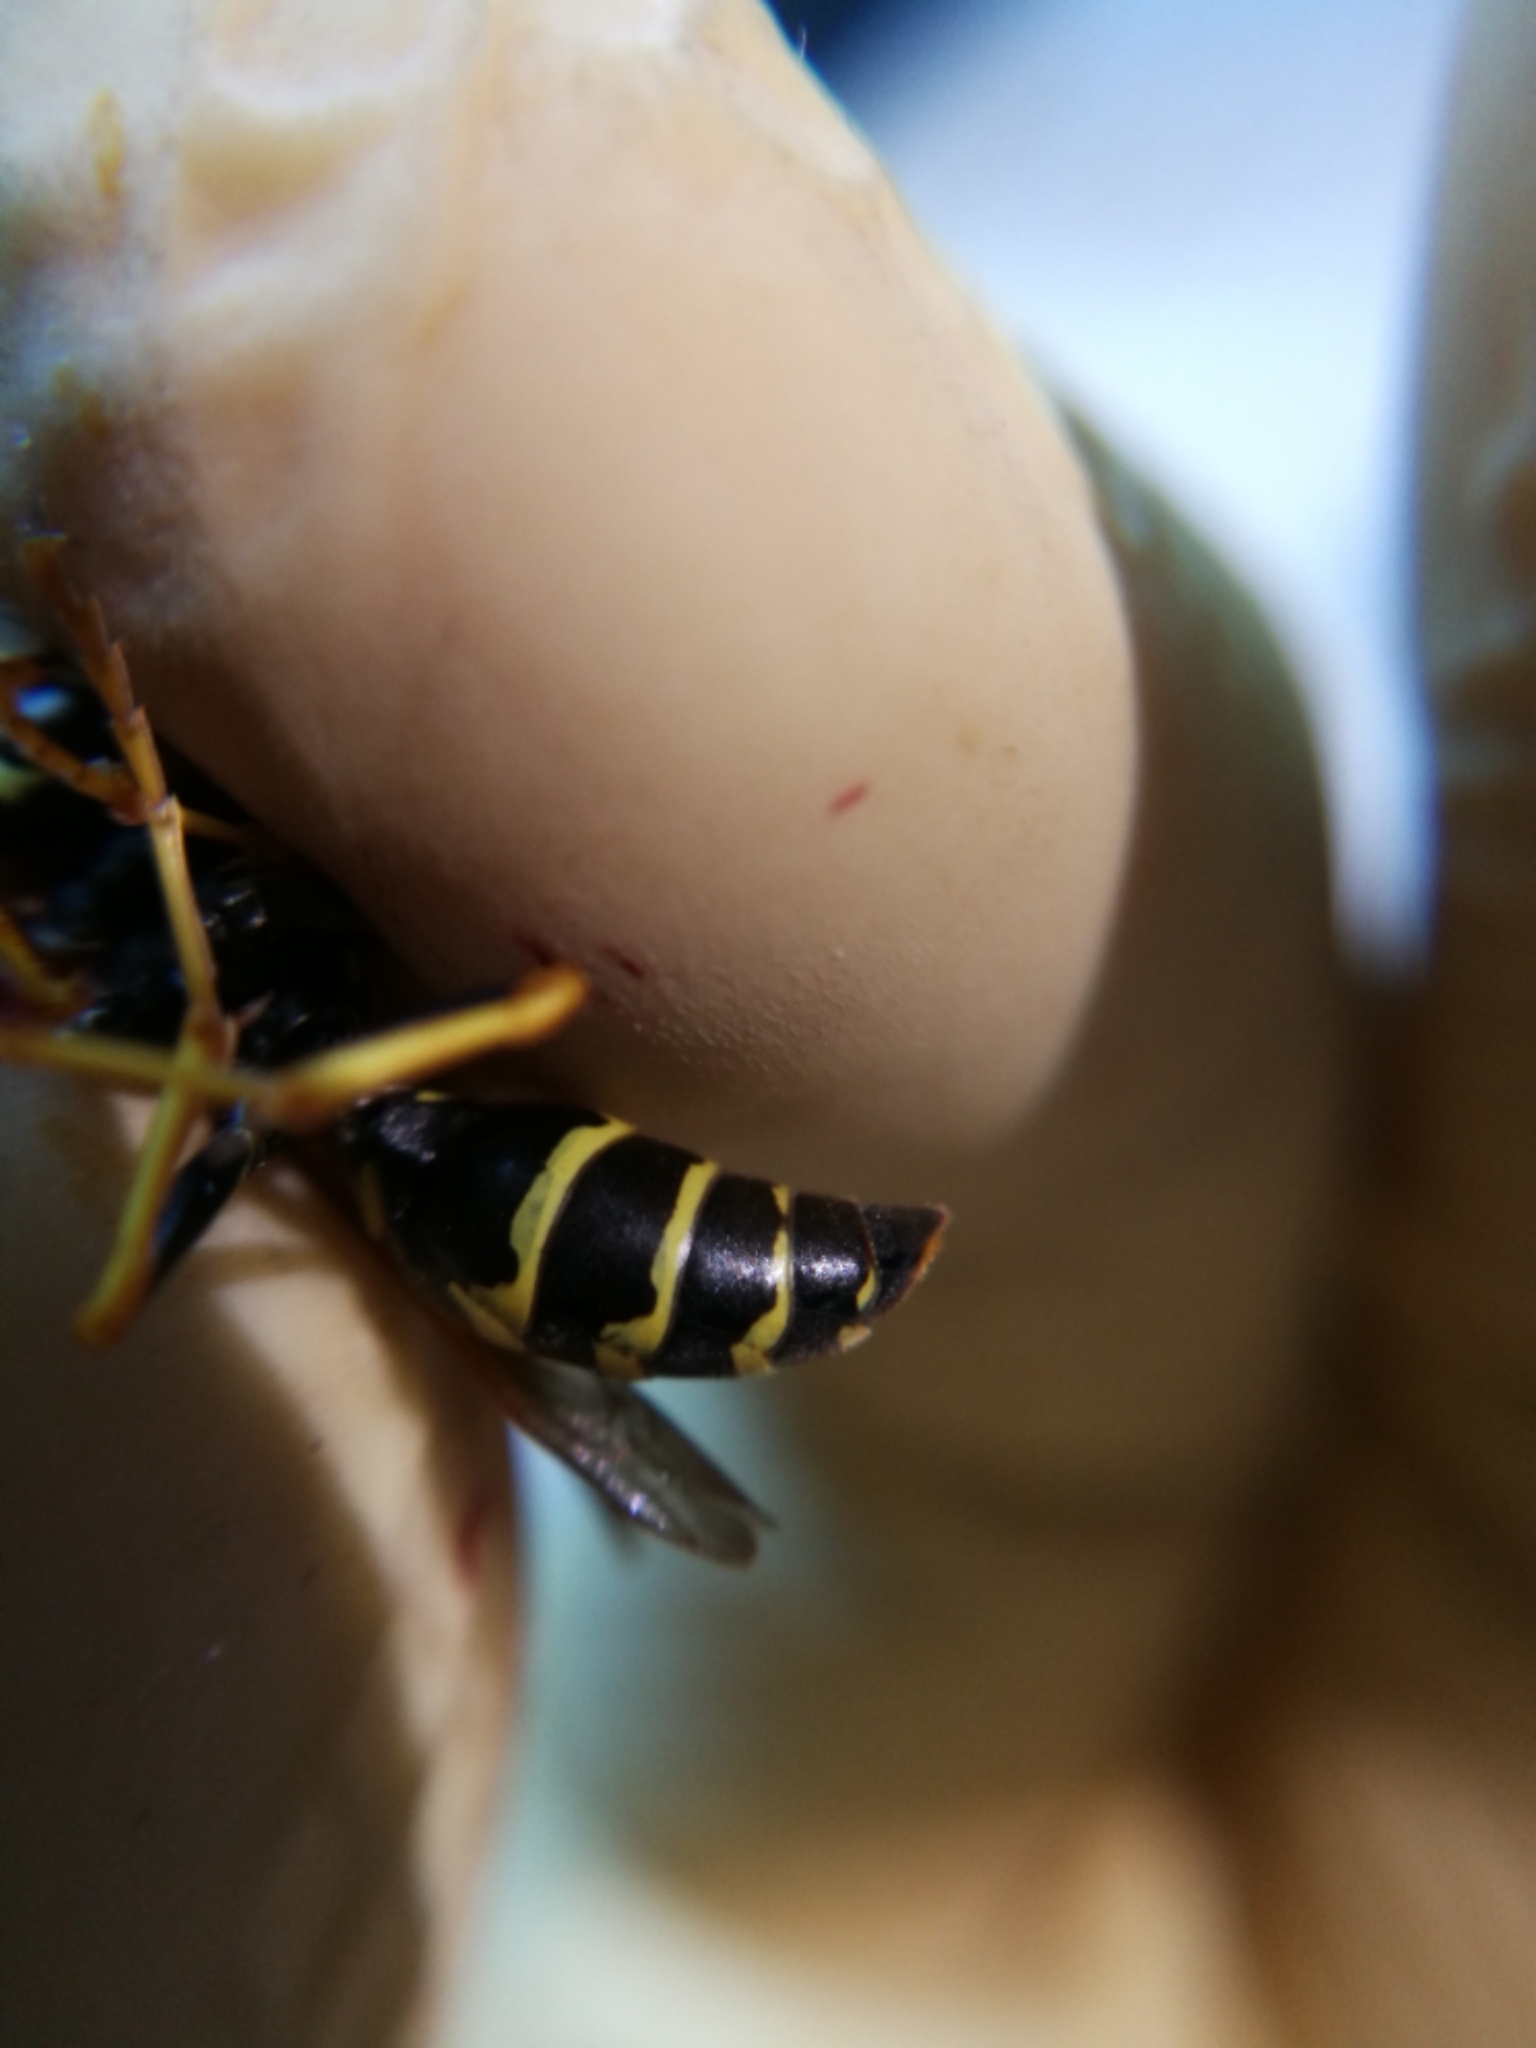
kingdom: Animalia
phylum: Arthropoda
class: Insecta
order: Hymenoptera
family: Eumenidae
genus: Polistes
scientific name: Polistes nimpha
